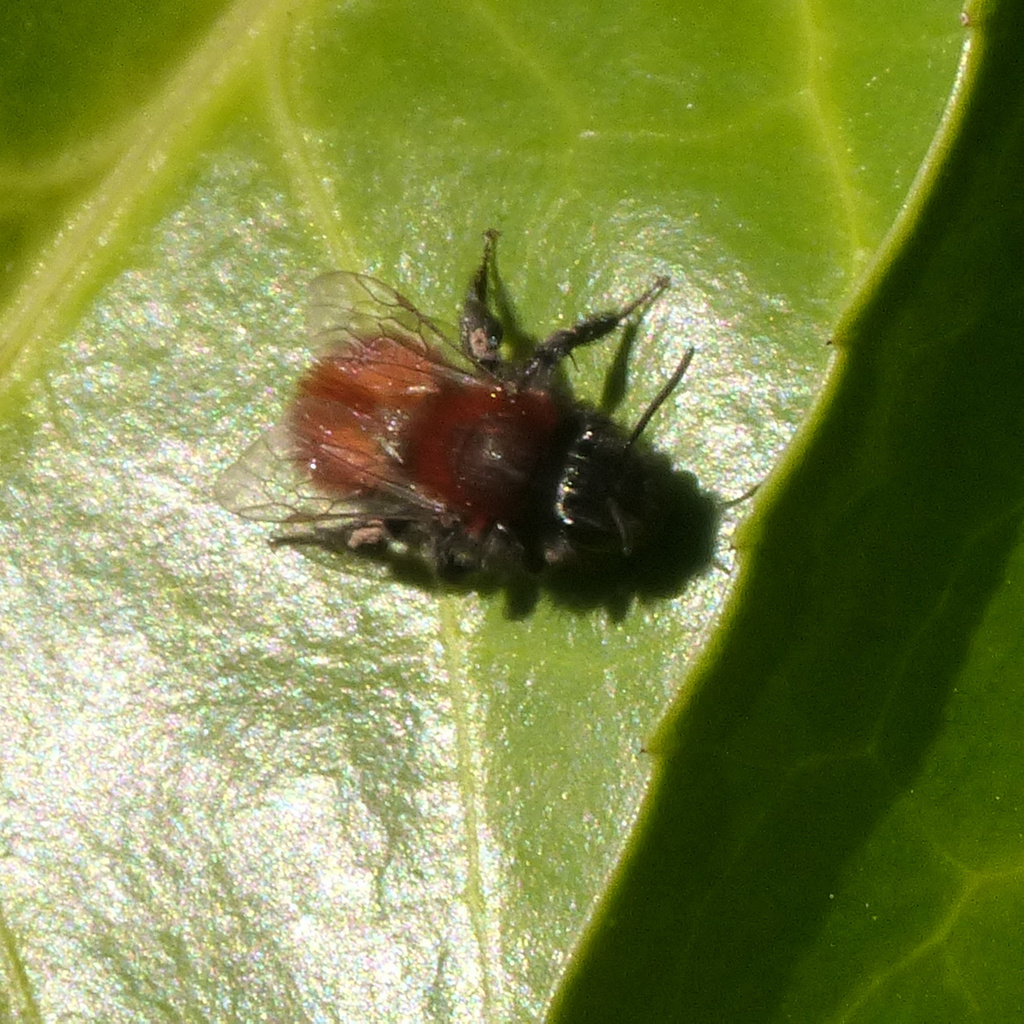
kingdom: Animalia
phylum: Arthropoda
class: Insecta
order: Hymenoptera
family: Andrenidae
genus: Andrena
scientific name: Andrena fulva
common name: Tawny mining bee
